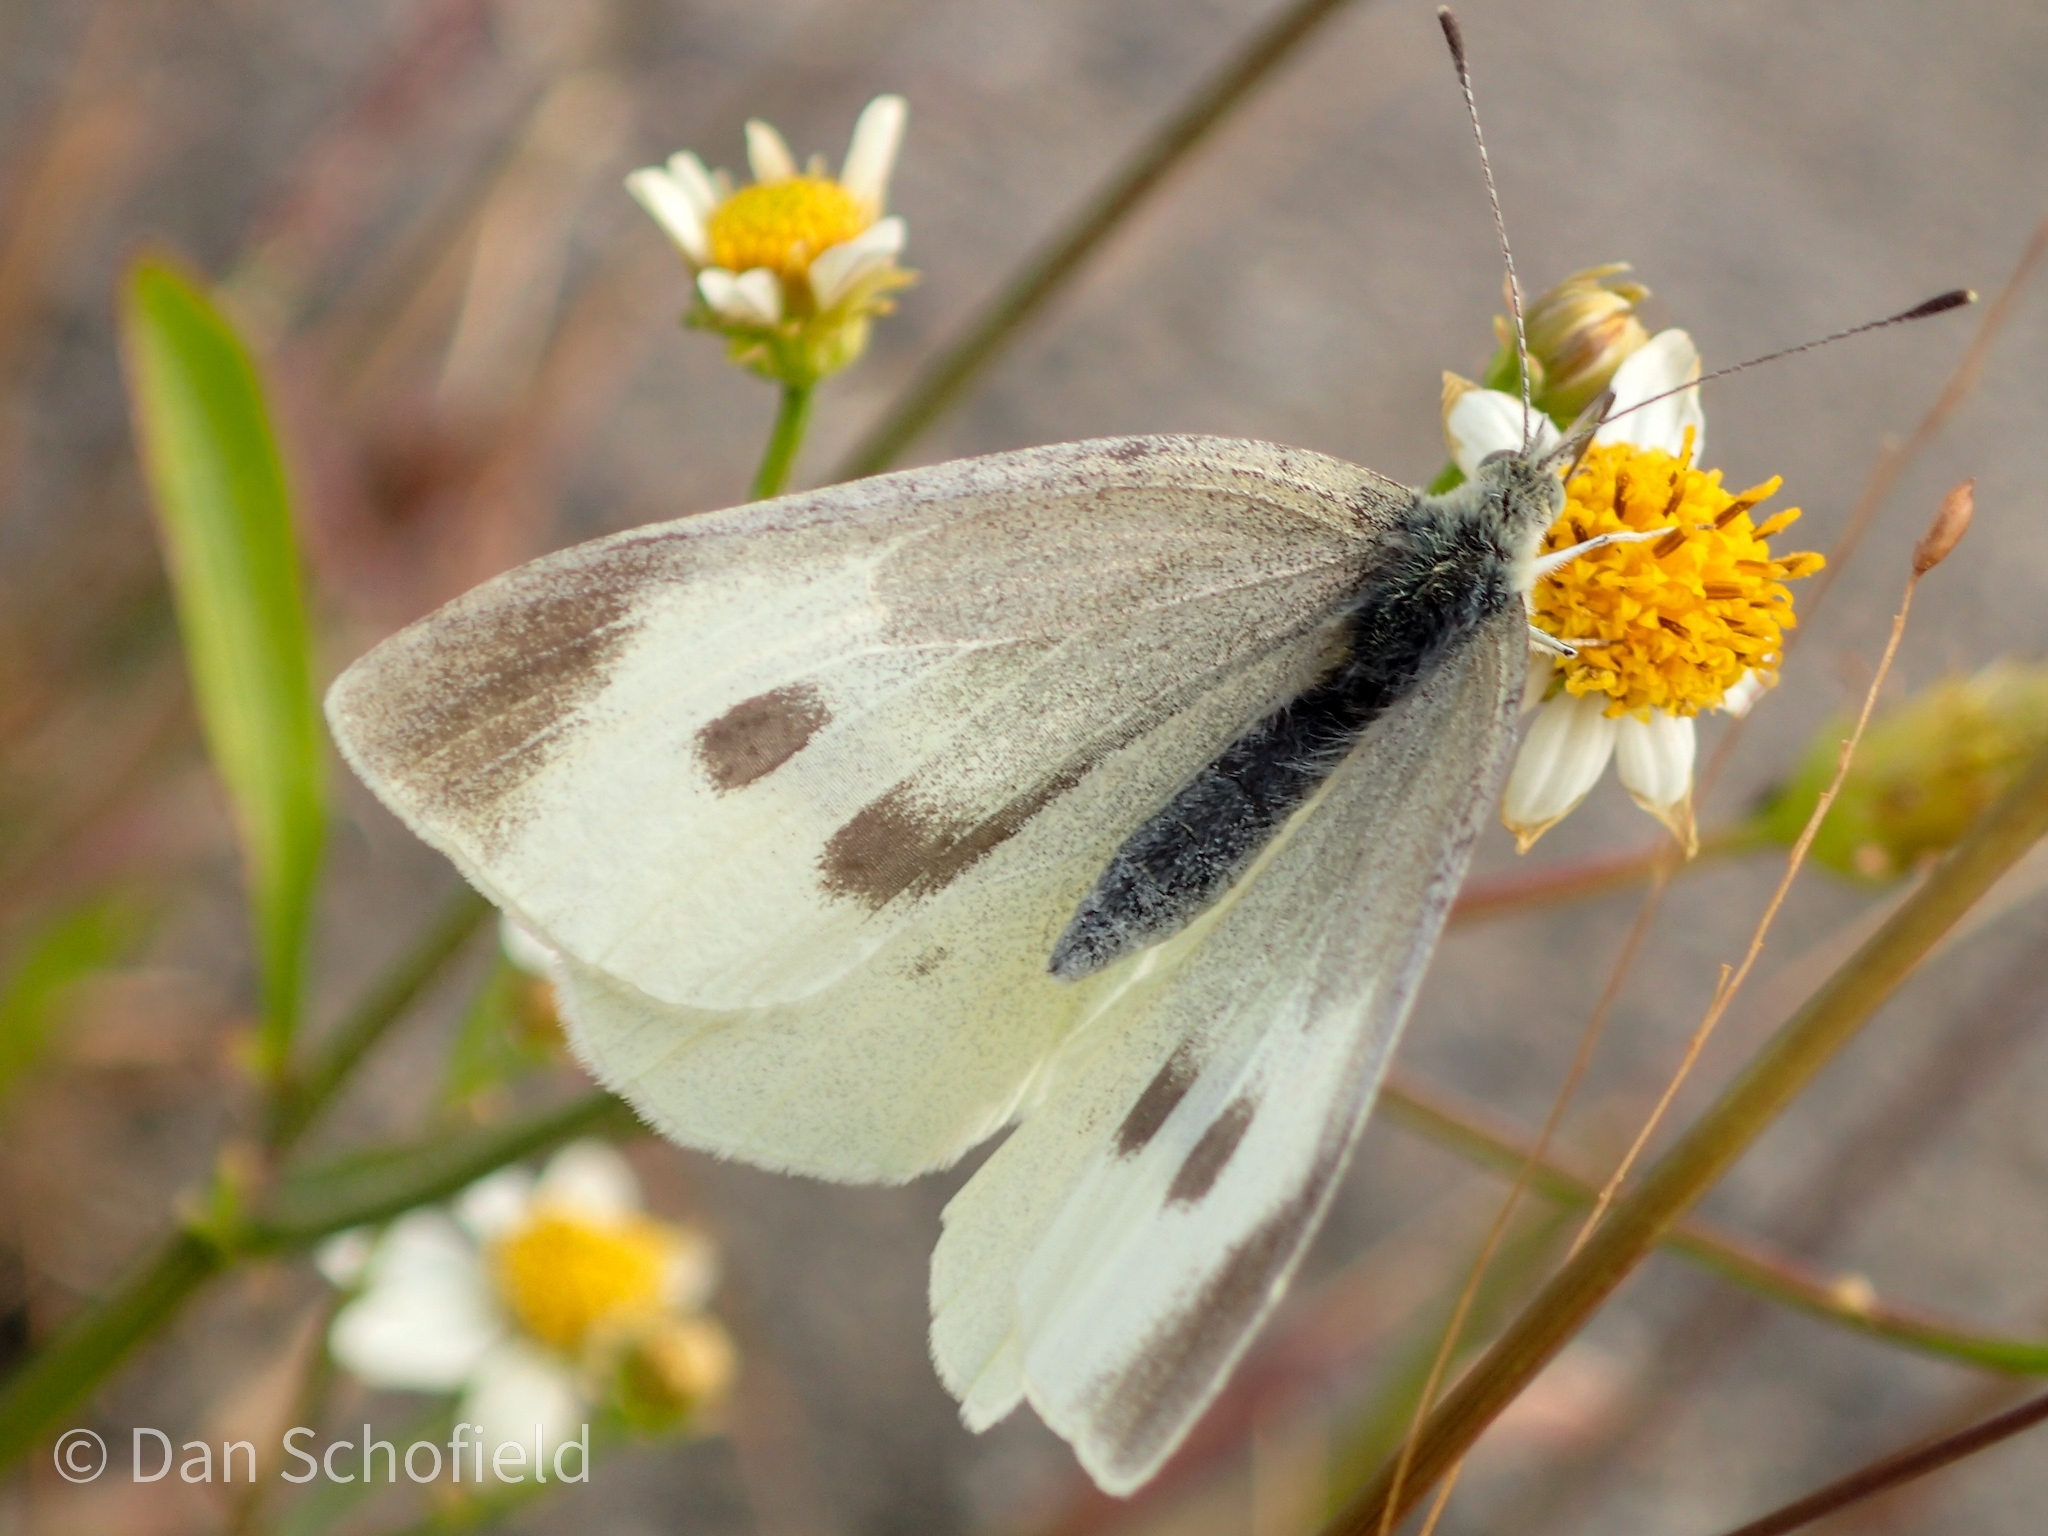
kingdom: Animalia
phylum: Arthropoda
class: Insecta
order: Lepidoptera
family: Pieridae
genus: Pieris
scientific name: Pieris rapae
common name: Small white
